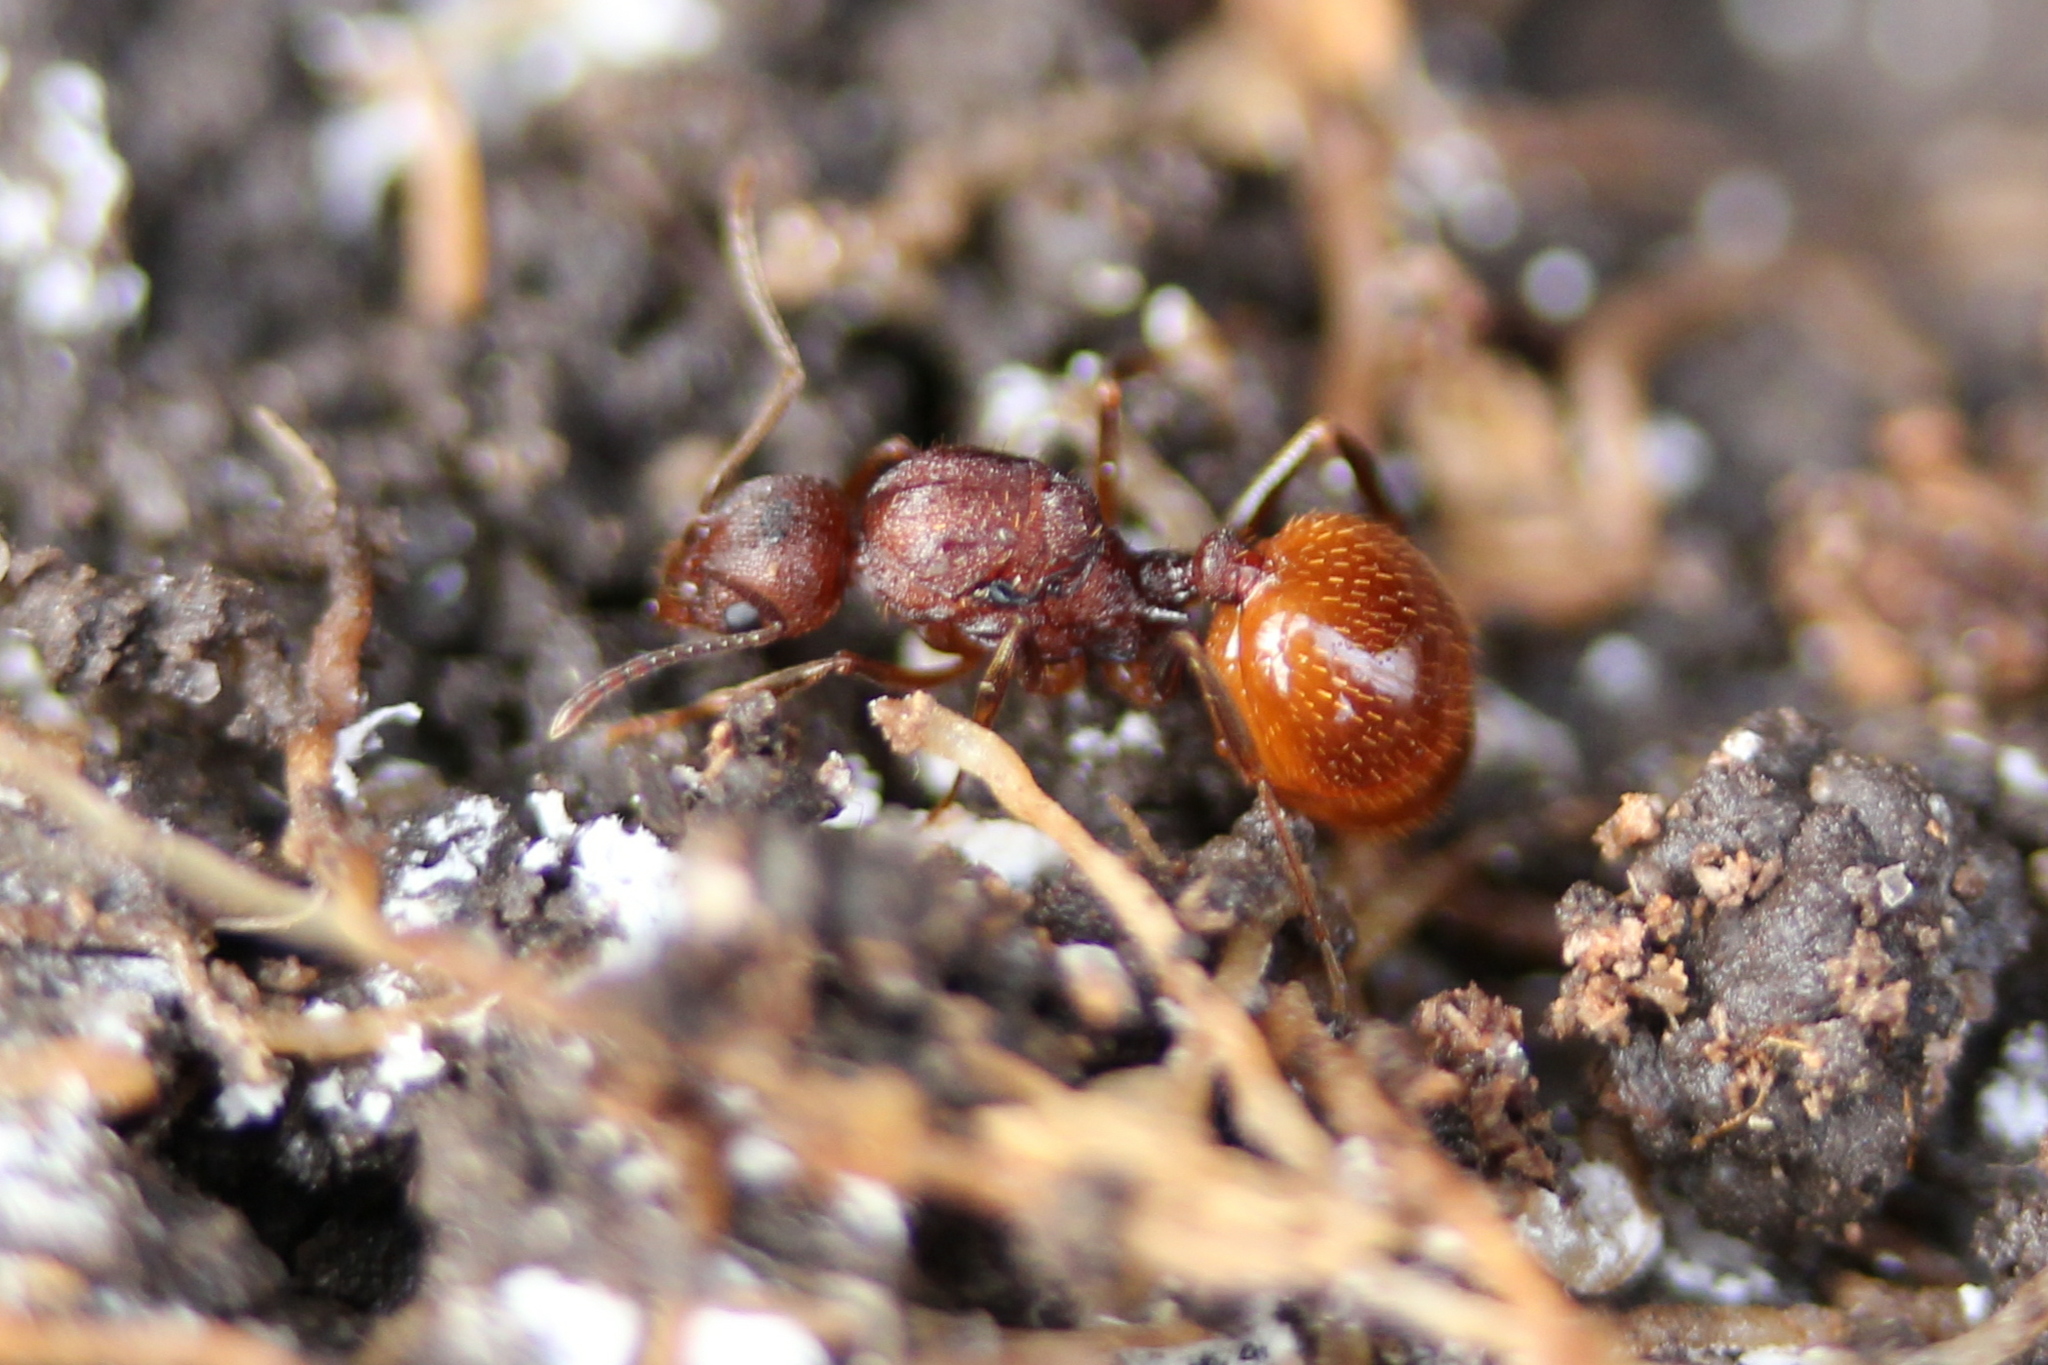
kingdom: Animalia
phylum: Arthropoda
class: Insecta
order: Hymenoptera
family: Formicidae
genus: Aphaenogaster
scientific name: Aphaenogaster fulva
